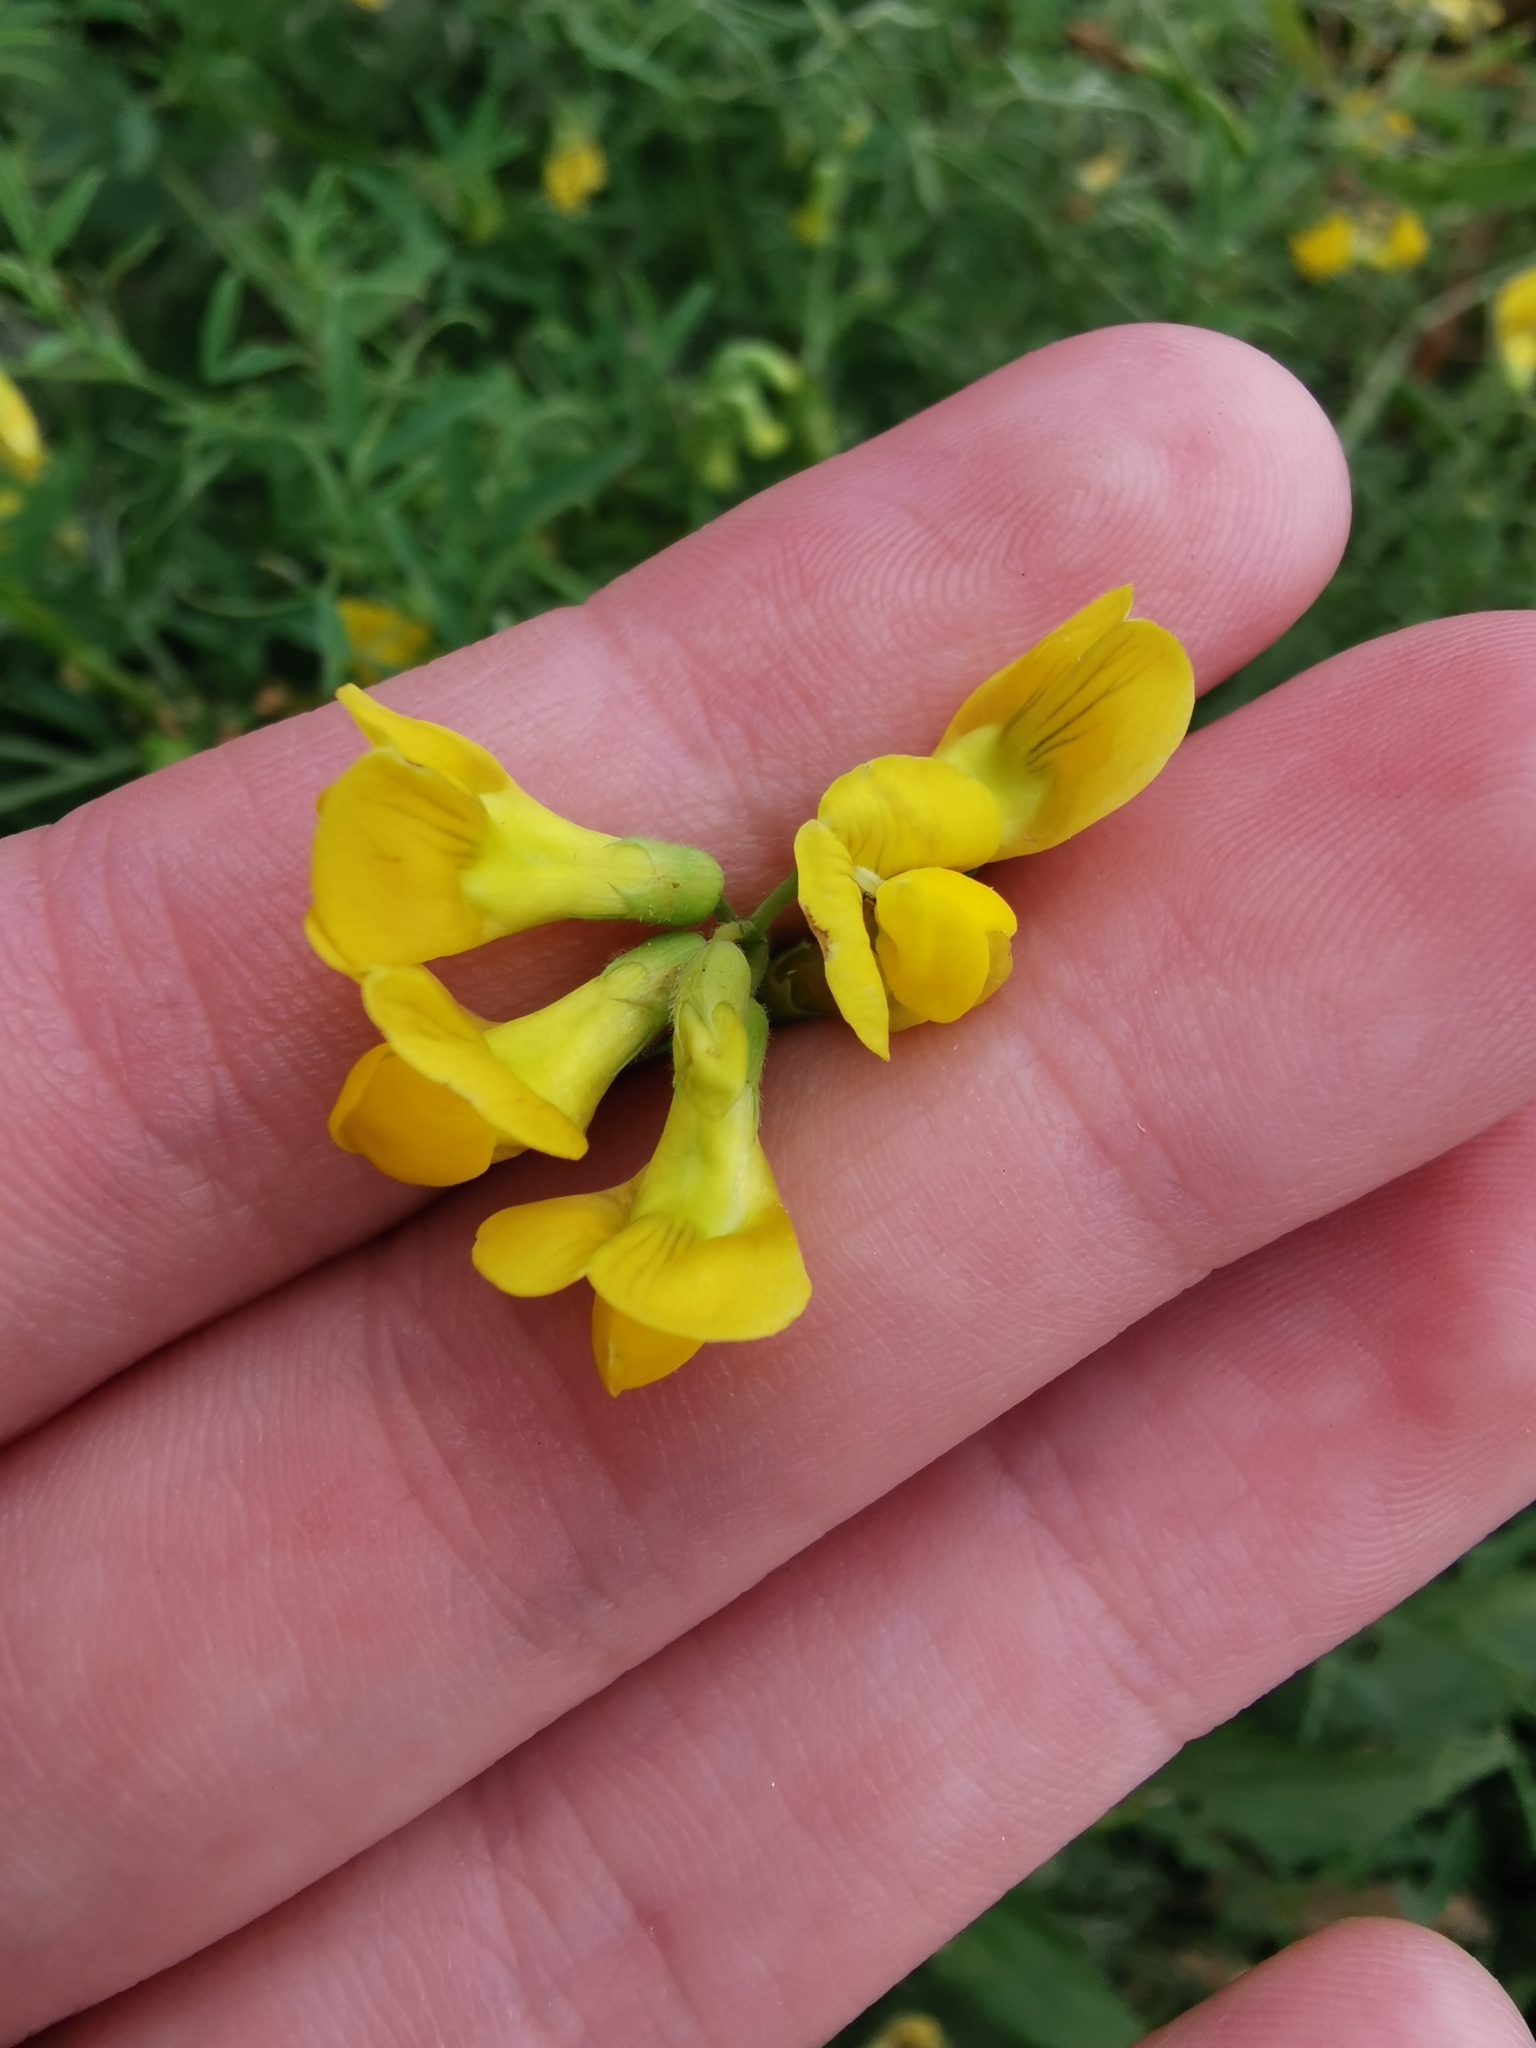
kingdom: Plantae
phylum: Tracheophyta
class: Magnoliopsida
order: Fabales
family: Fabaceae
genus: Lathyrus
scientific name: Lathyrus pratensis
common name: Meadow vetchling
